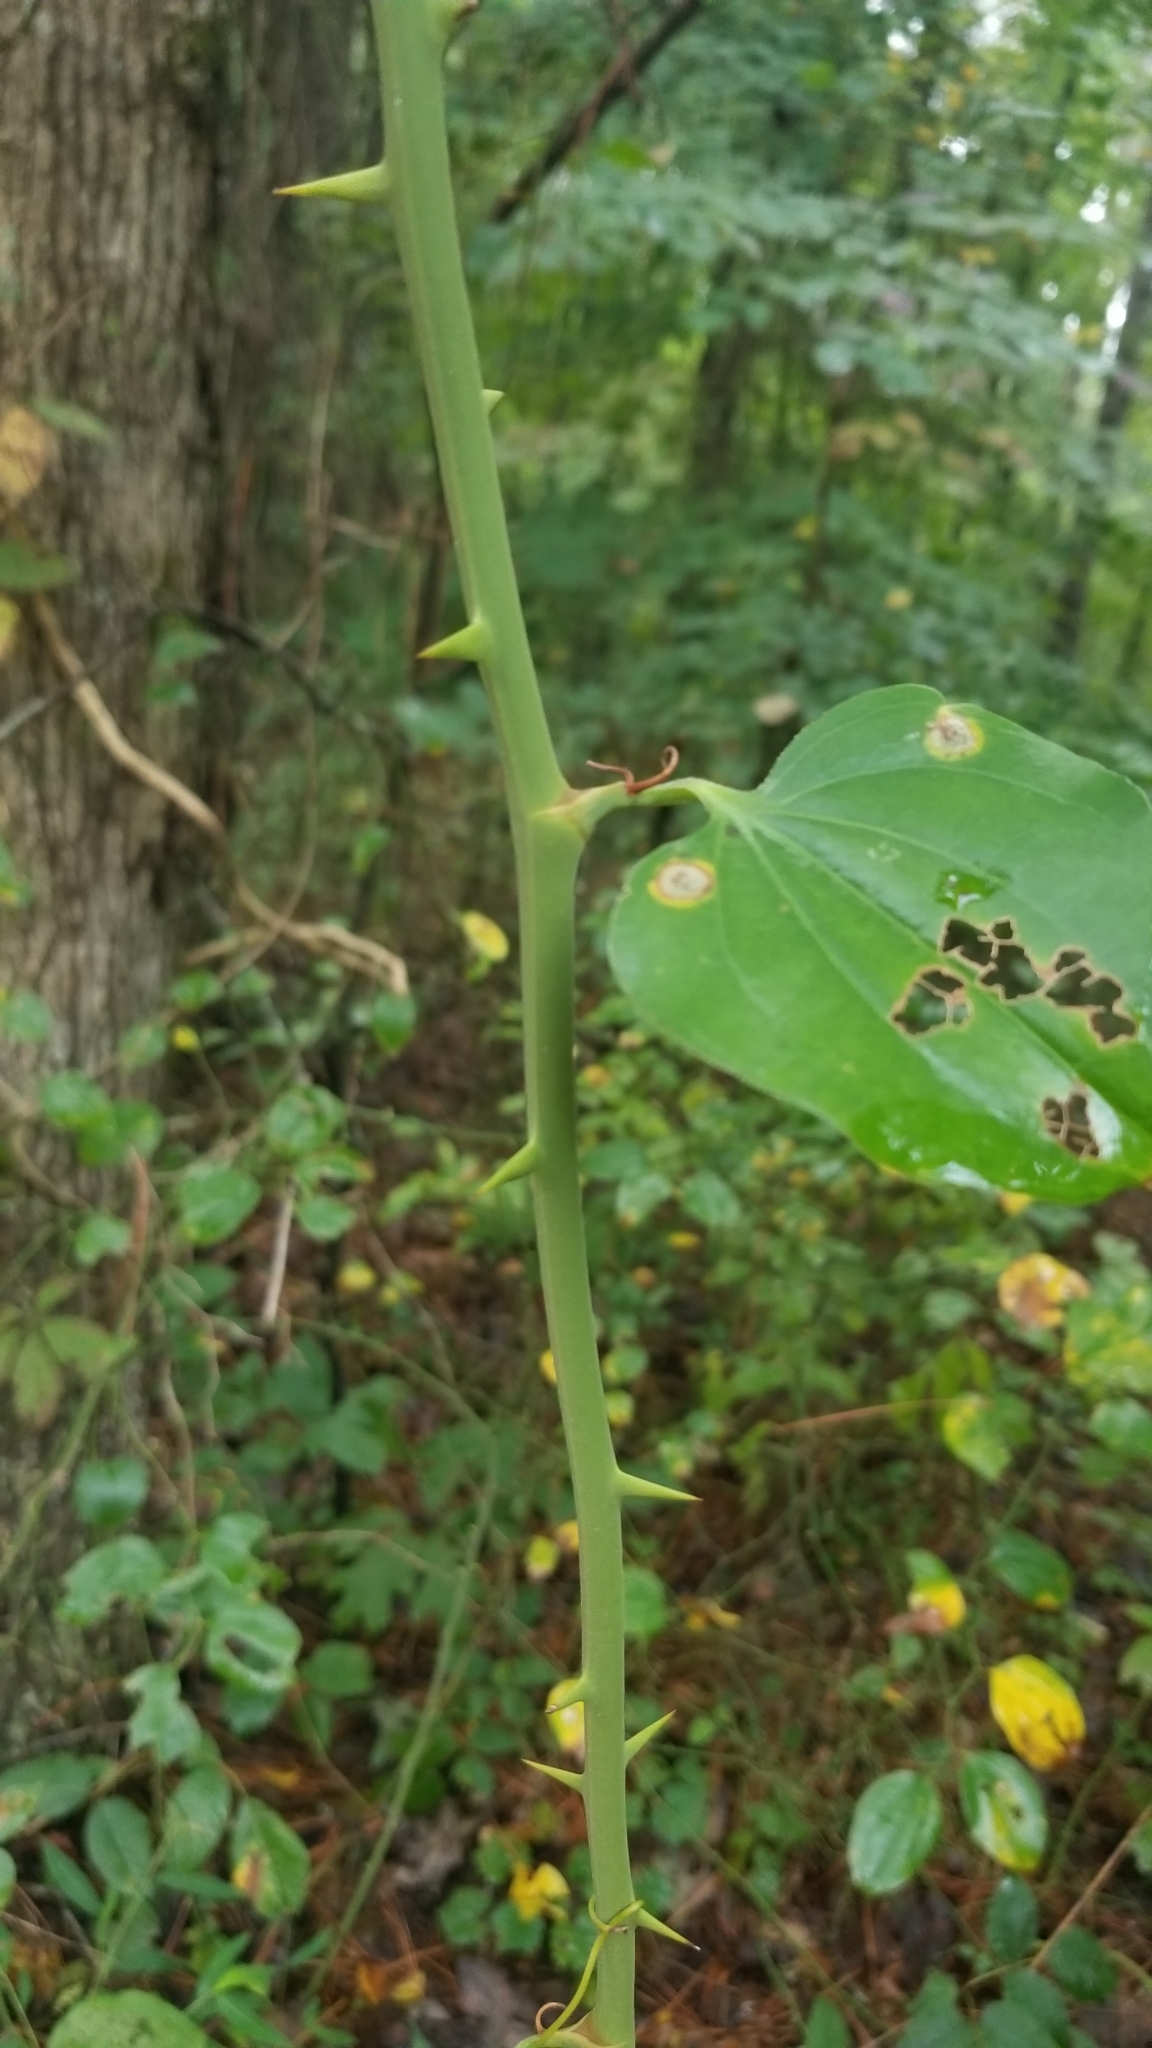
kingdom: Plantae
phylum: Tracheophyta
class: Liliopsida
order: Liliales
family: Smilacaceae
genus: Smilax
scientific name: Smilax rotundifolia
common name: Bullbriar
